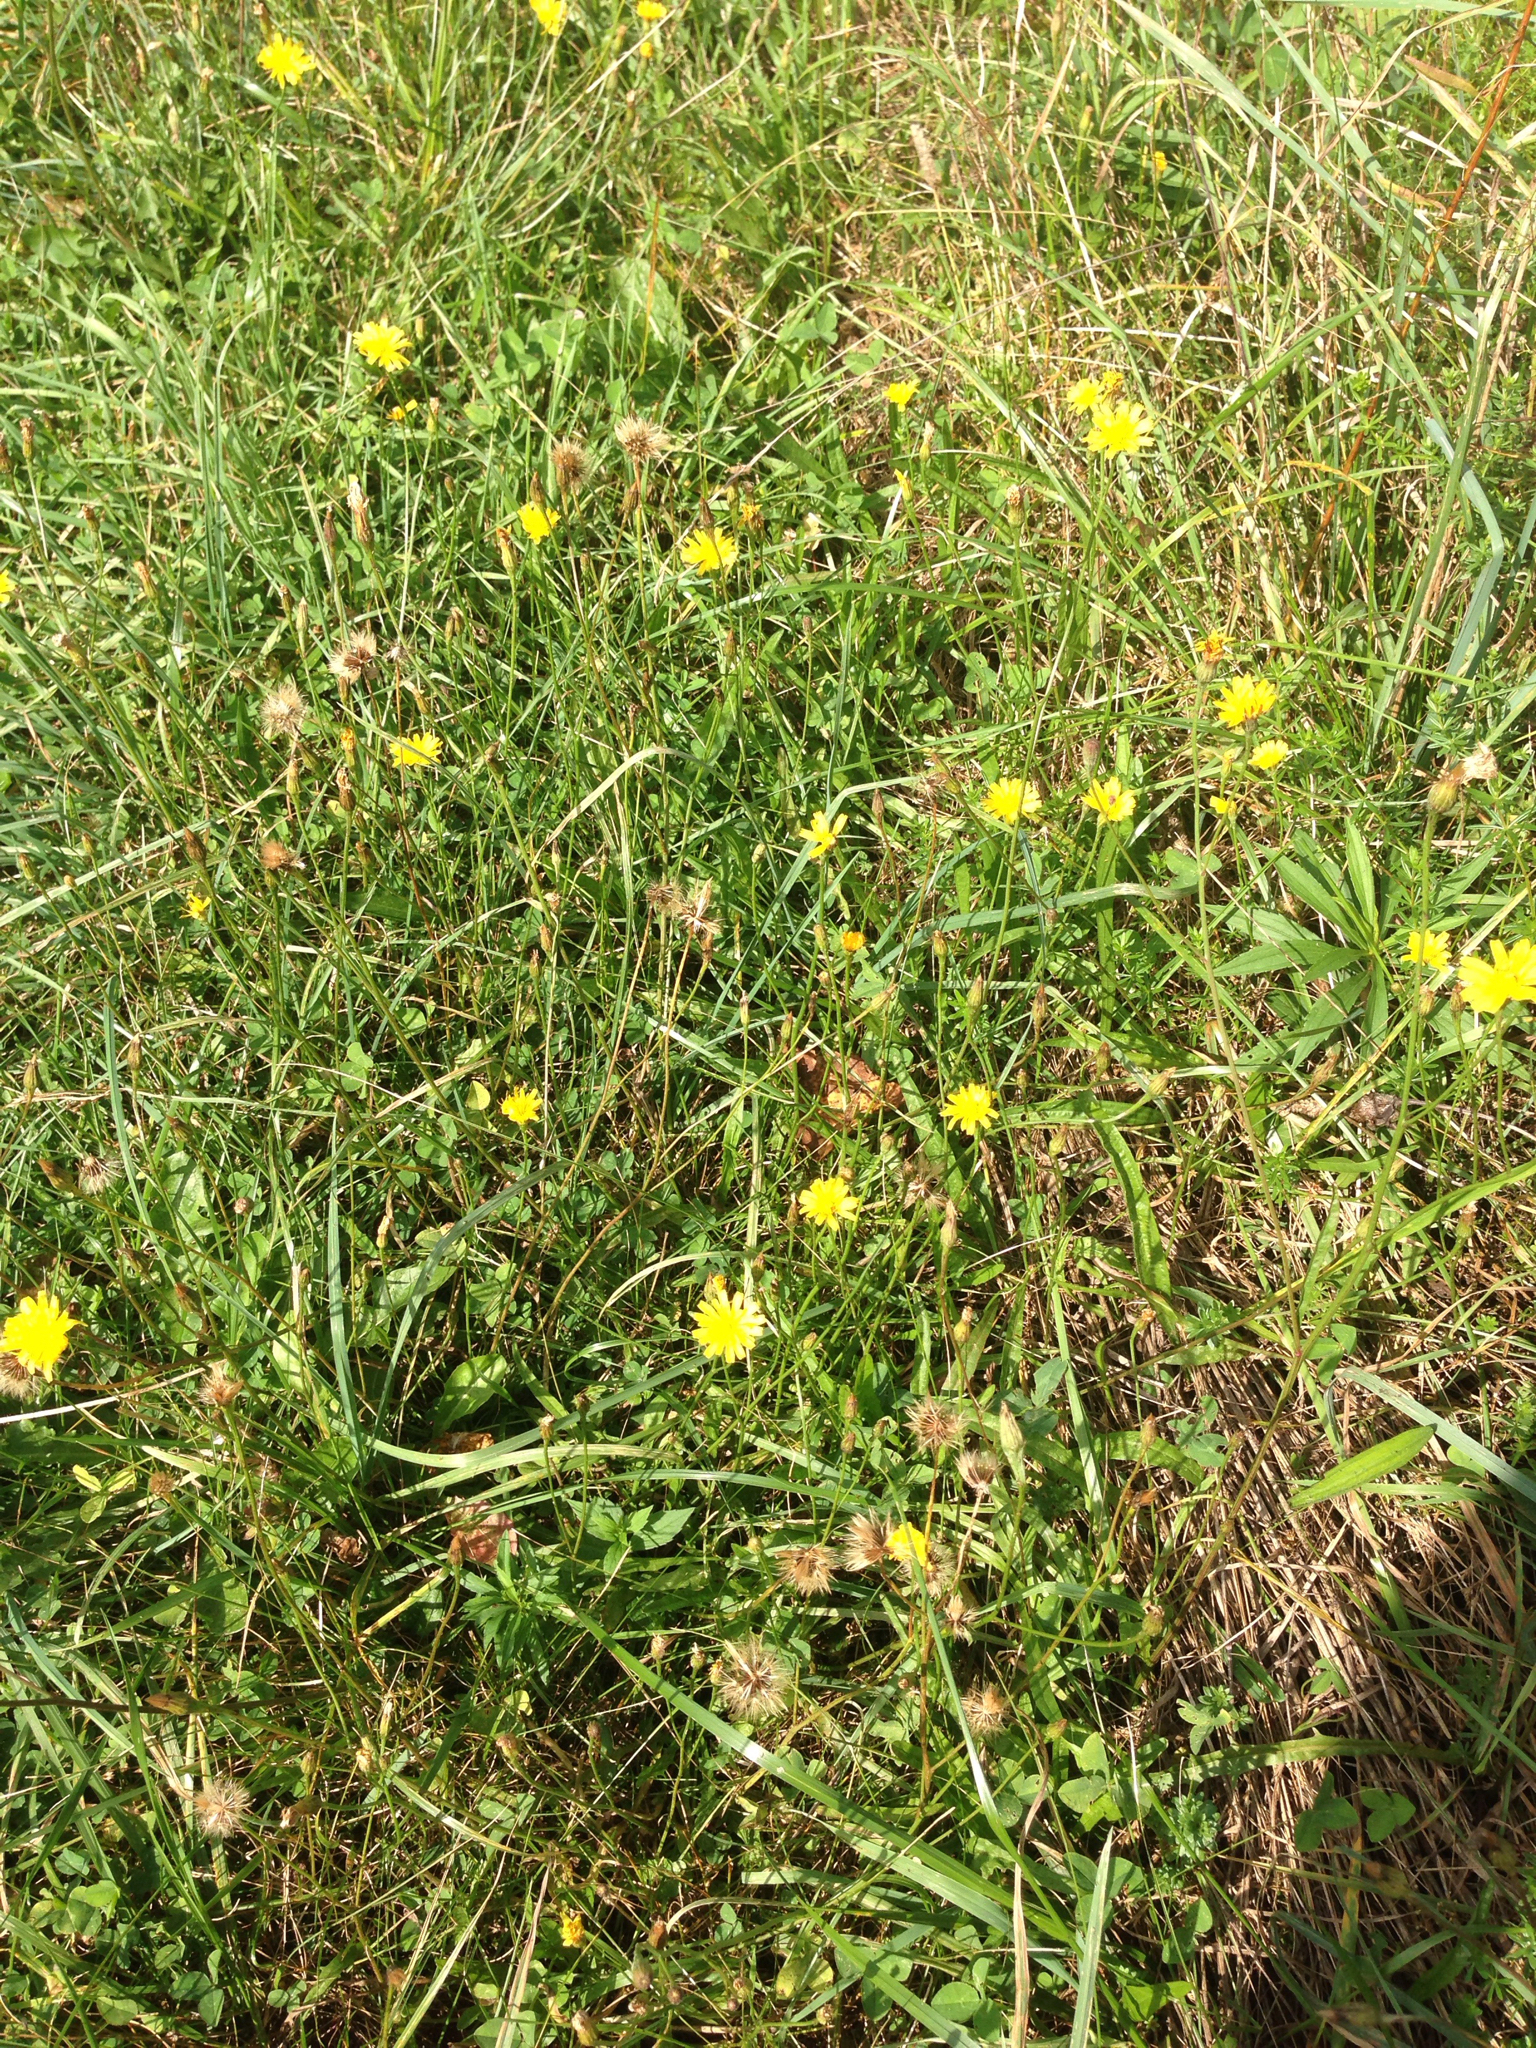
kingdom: Plantae
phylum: Tracheophyta
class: Magnoliopsida
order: Asterales
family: Asteraceae
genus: Scorzoneroides
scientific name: Scorzoneroides autumnalis
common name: Autumn hawkbit
